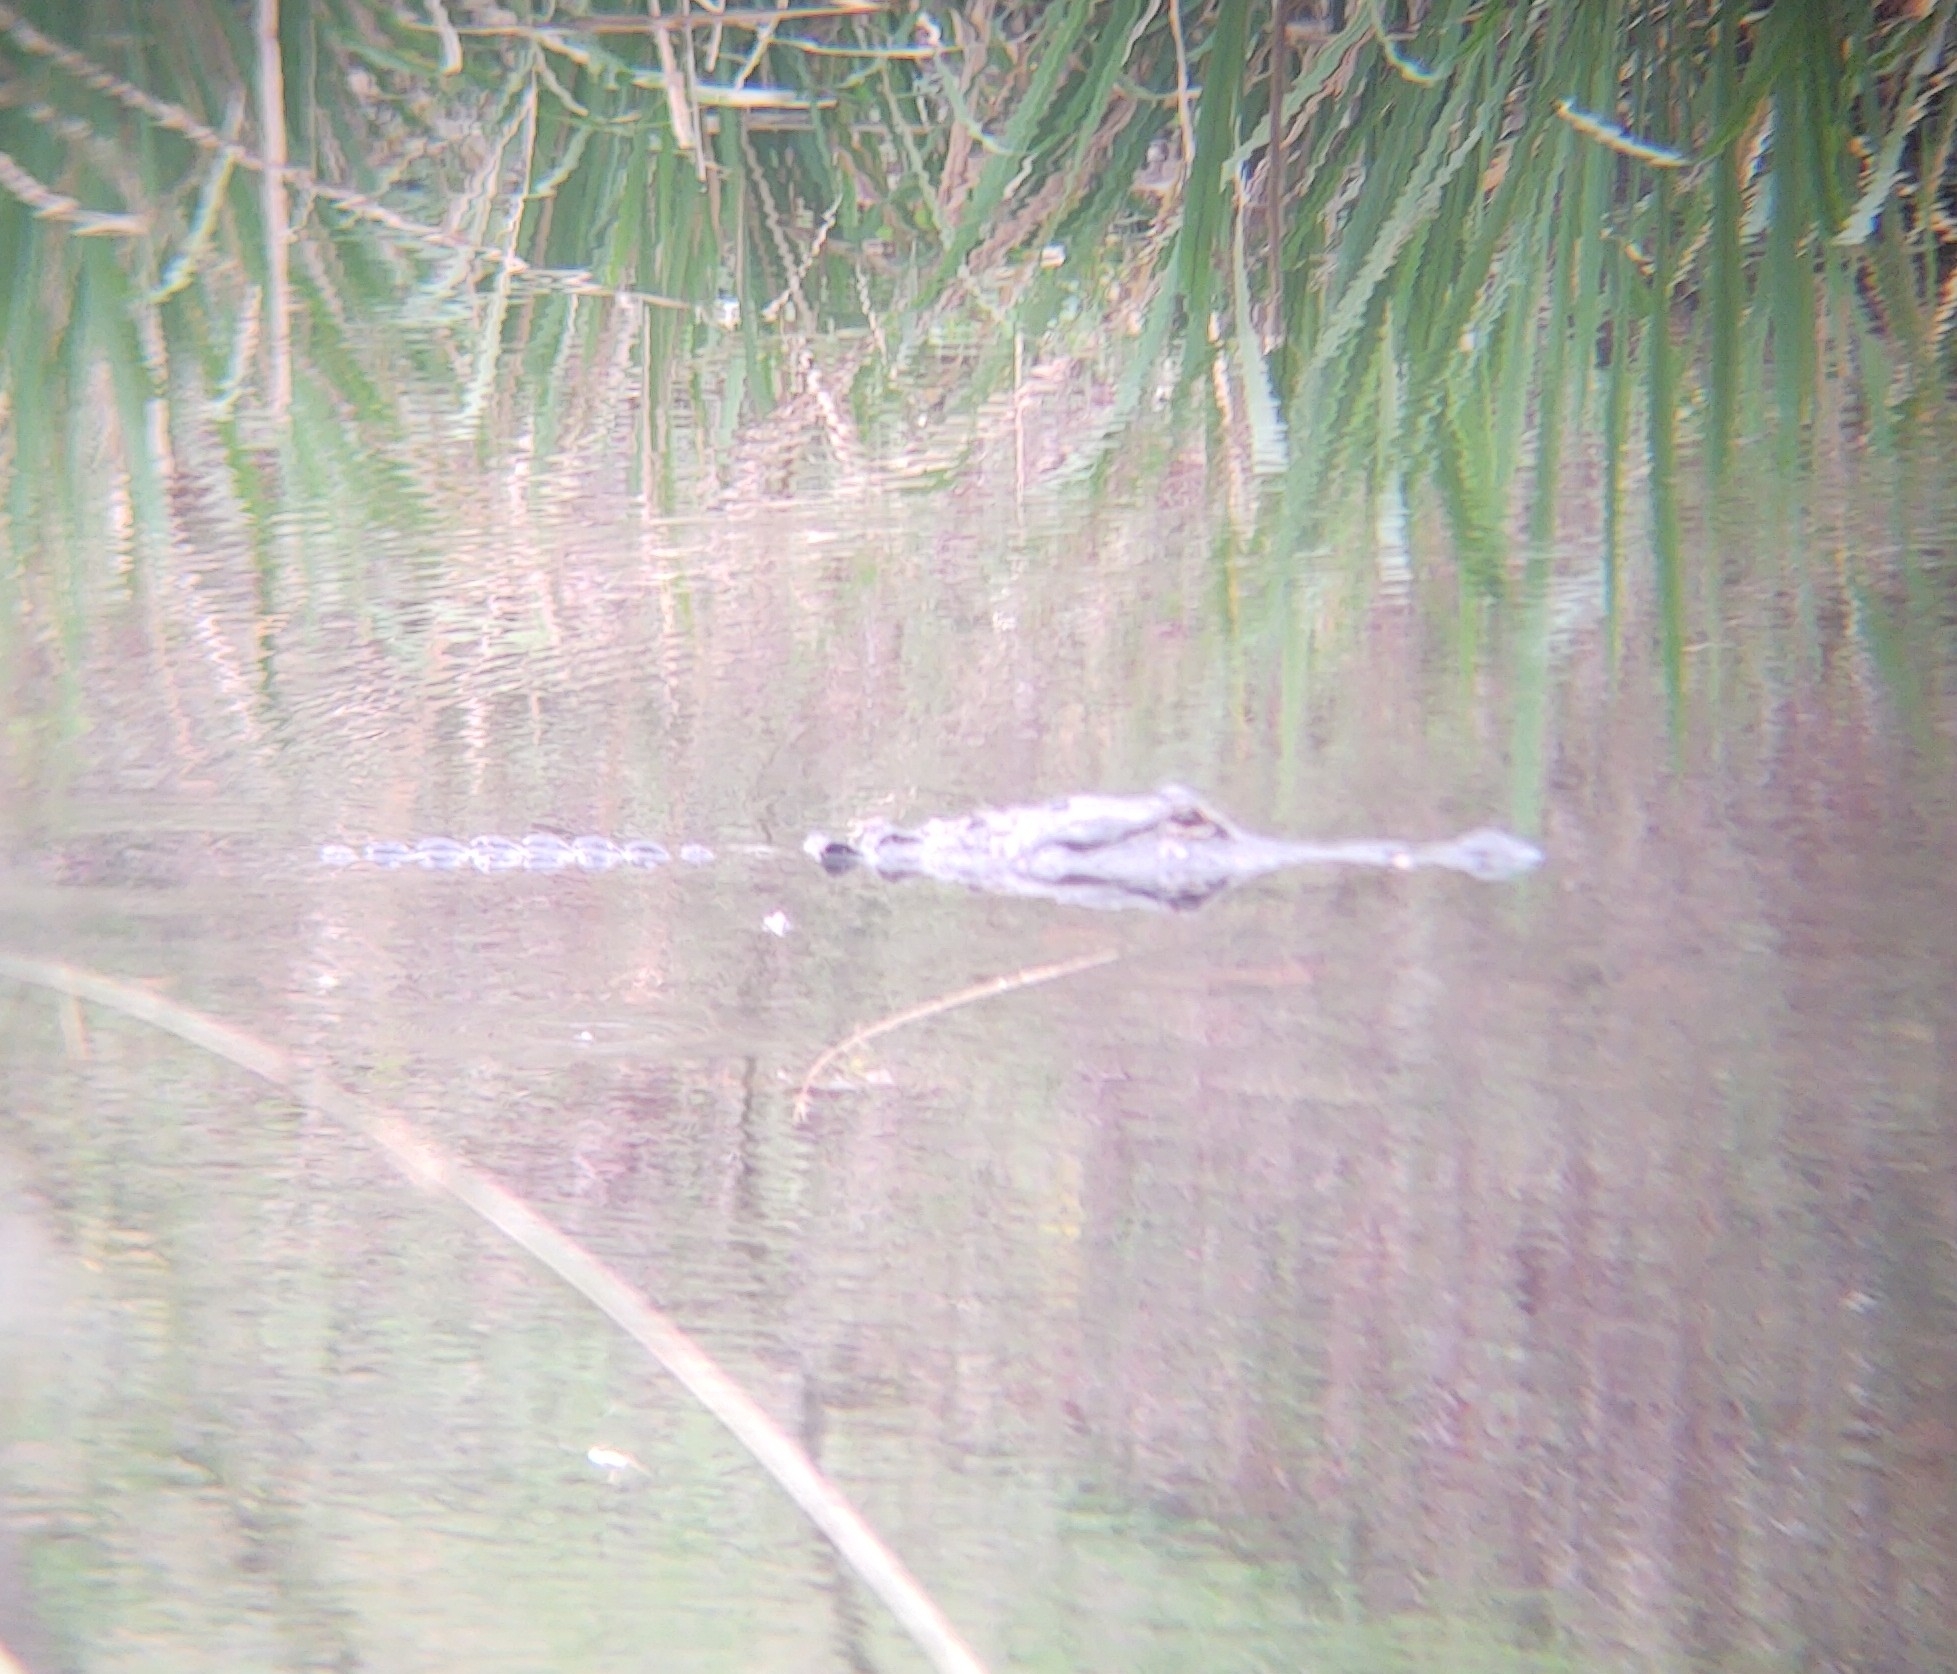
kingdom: Animalia
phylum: Chordata
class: Crocodylia
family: Alligatoridae
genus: Alligator
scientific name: Alligator mississippiensis
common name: American alligator
